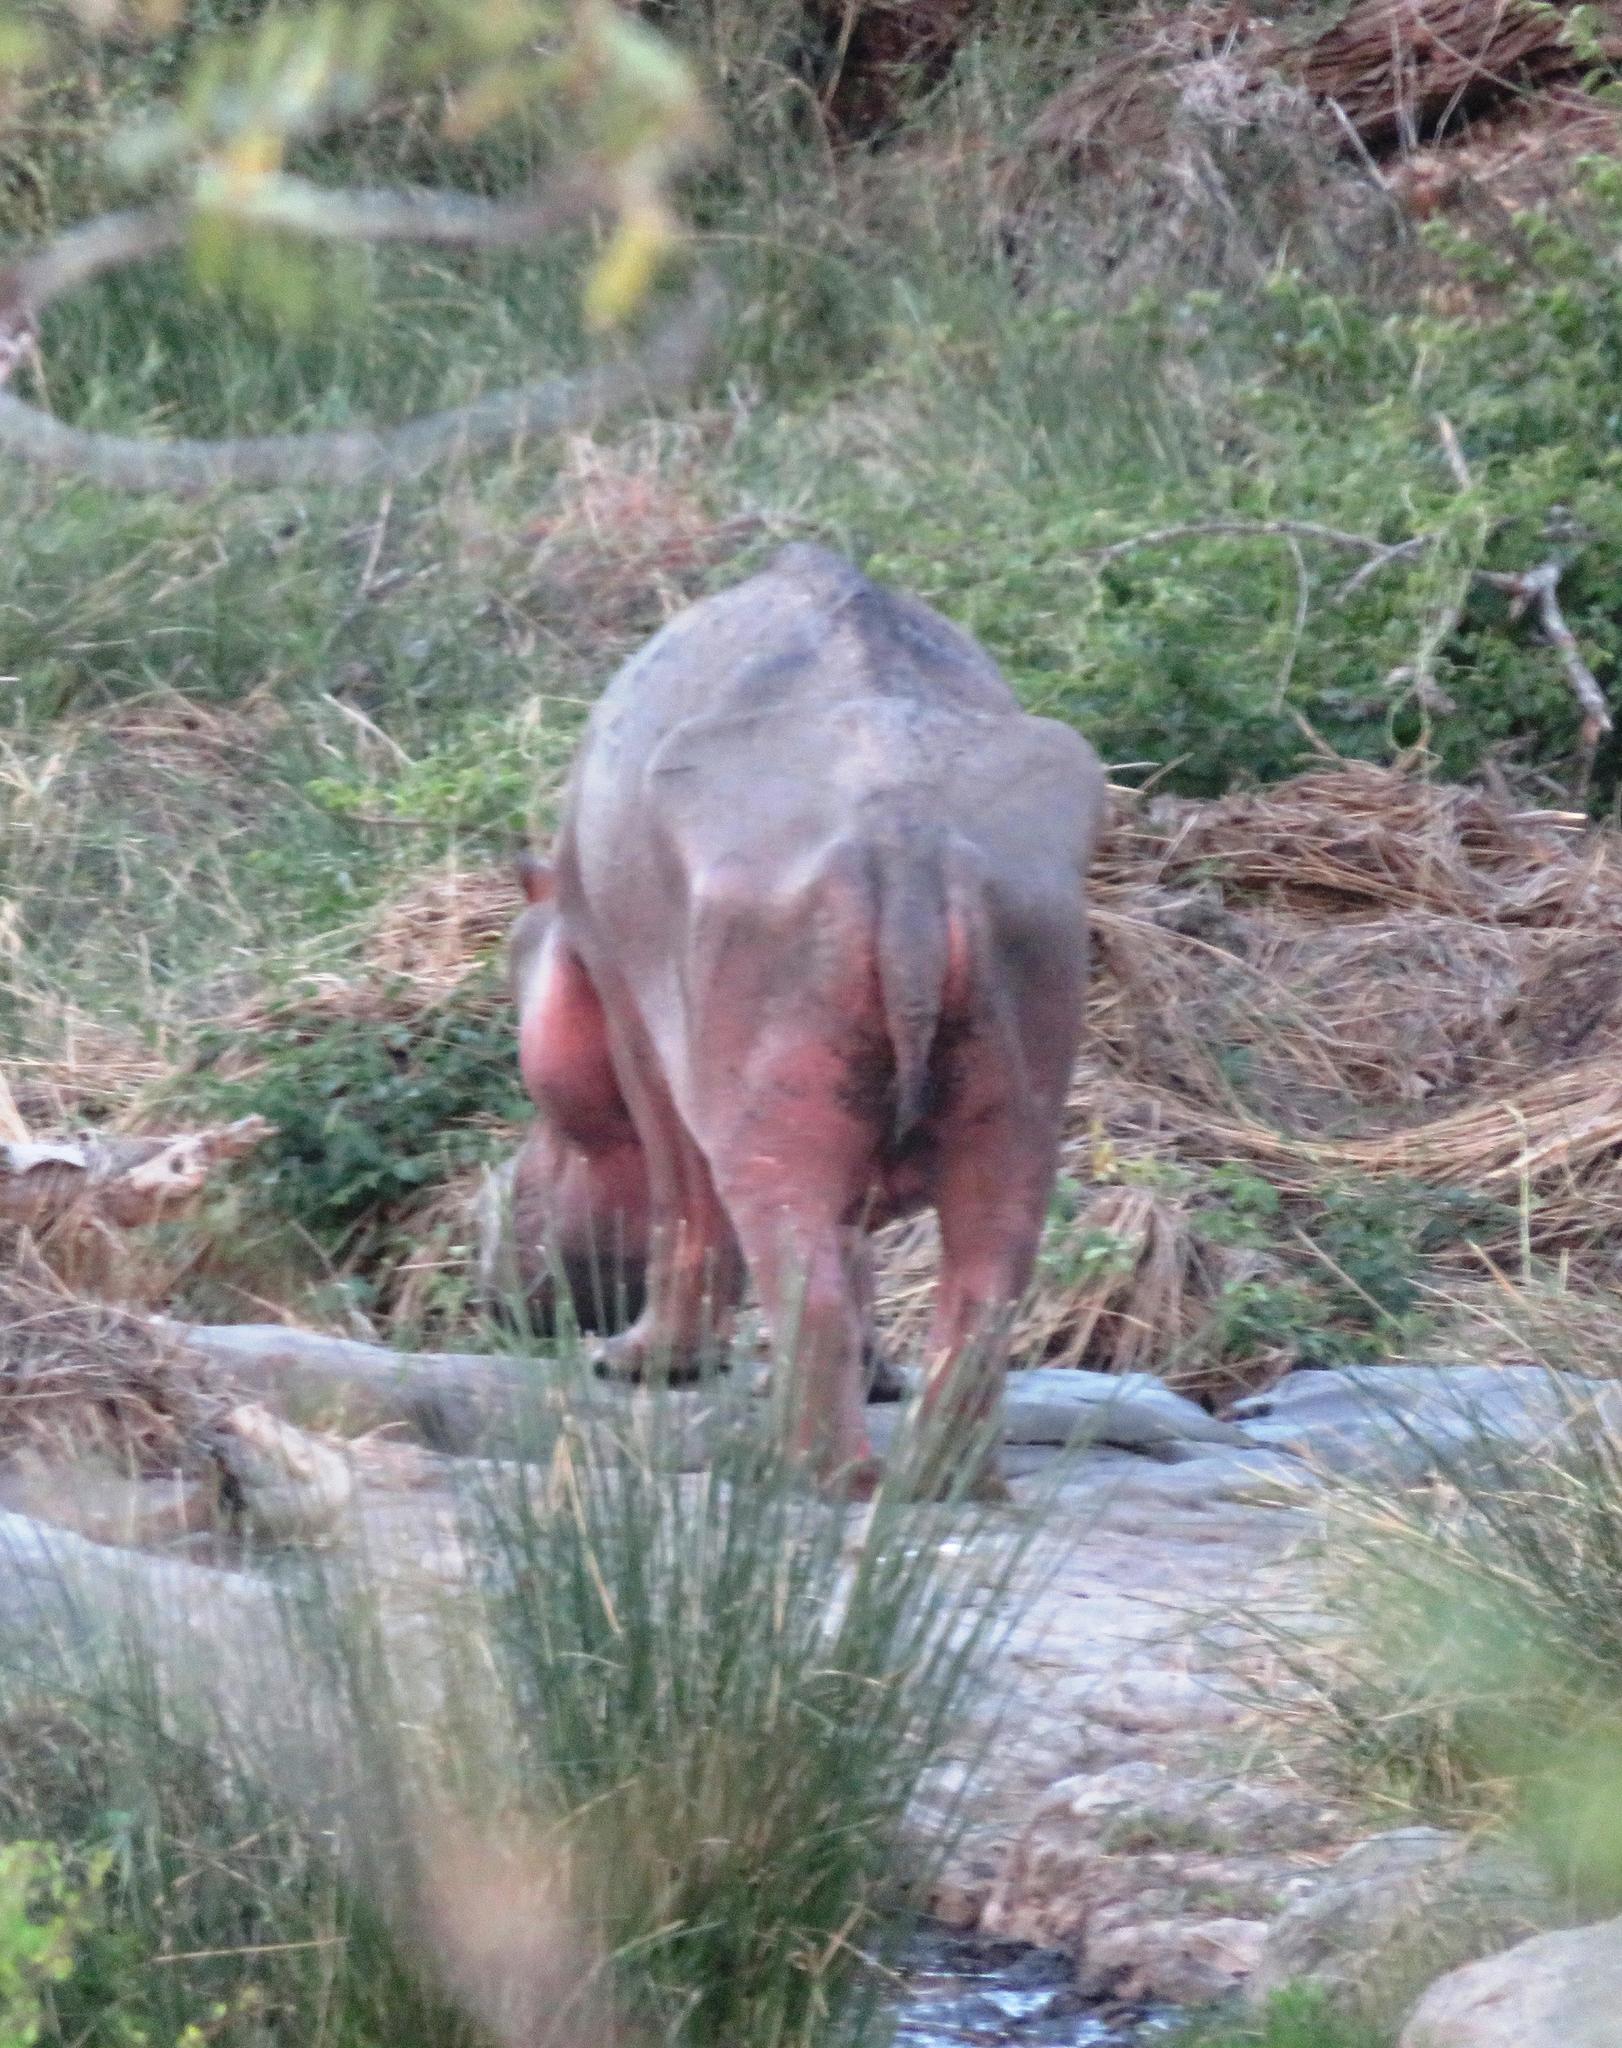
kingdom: Animalia
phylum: Chordata
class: Mammalia
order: Artiodactyla
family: Hippopotamidae
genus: Hippopotamus
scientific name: Hippopotamus amphibius
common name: Common hippopotamus
